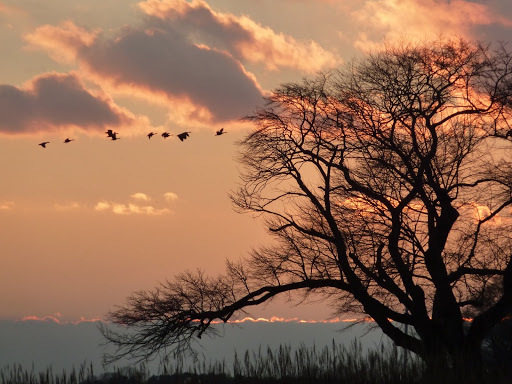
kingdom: Animalia
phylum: Chordata
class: Aves
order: Anseriformes
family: Anatidae
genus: Branta
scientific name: Branta canadensis
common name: Canada goose
